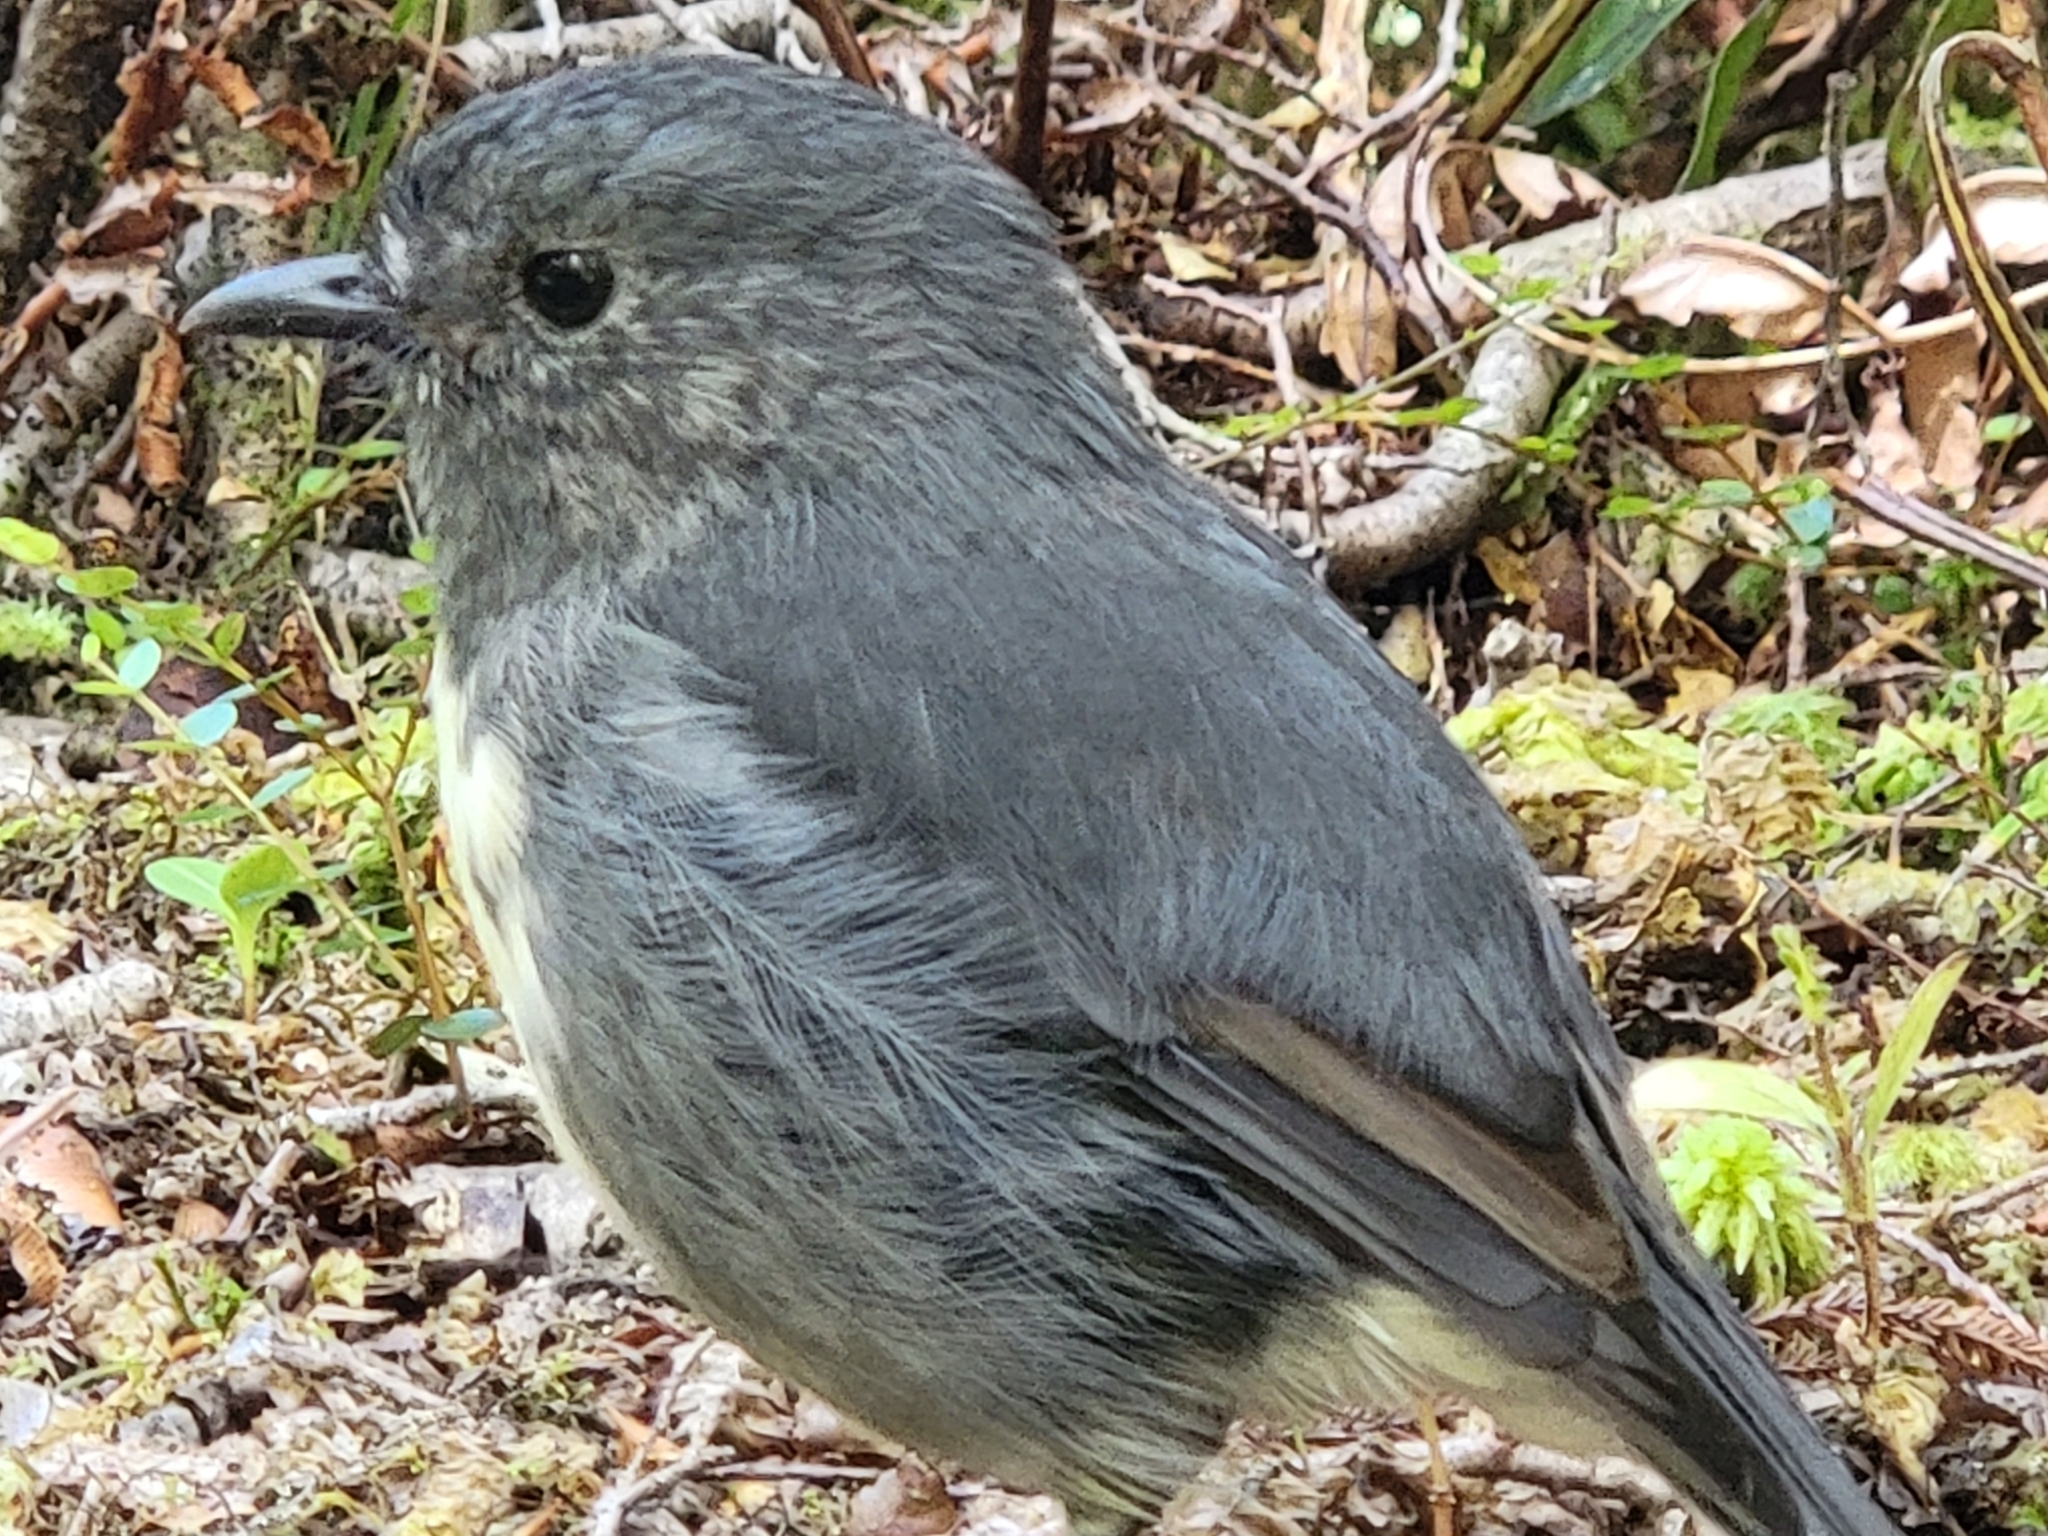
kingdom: Animalia
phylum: Chordata
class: Aves
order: Passeriformes
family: Petroicidae
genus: Petroica
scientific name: Petroica australis
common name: New zealand robin
